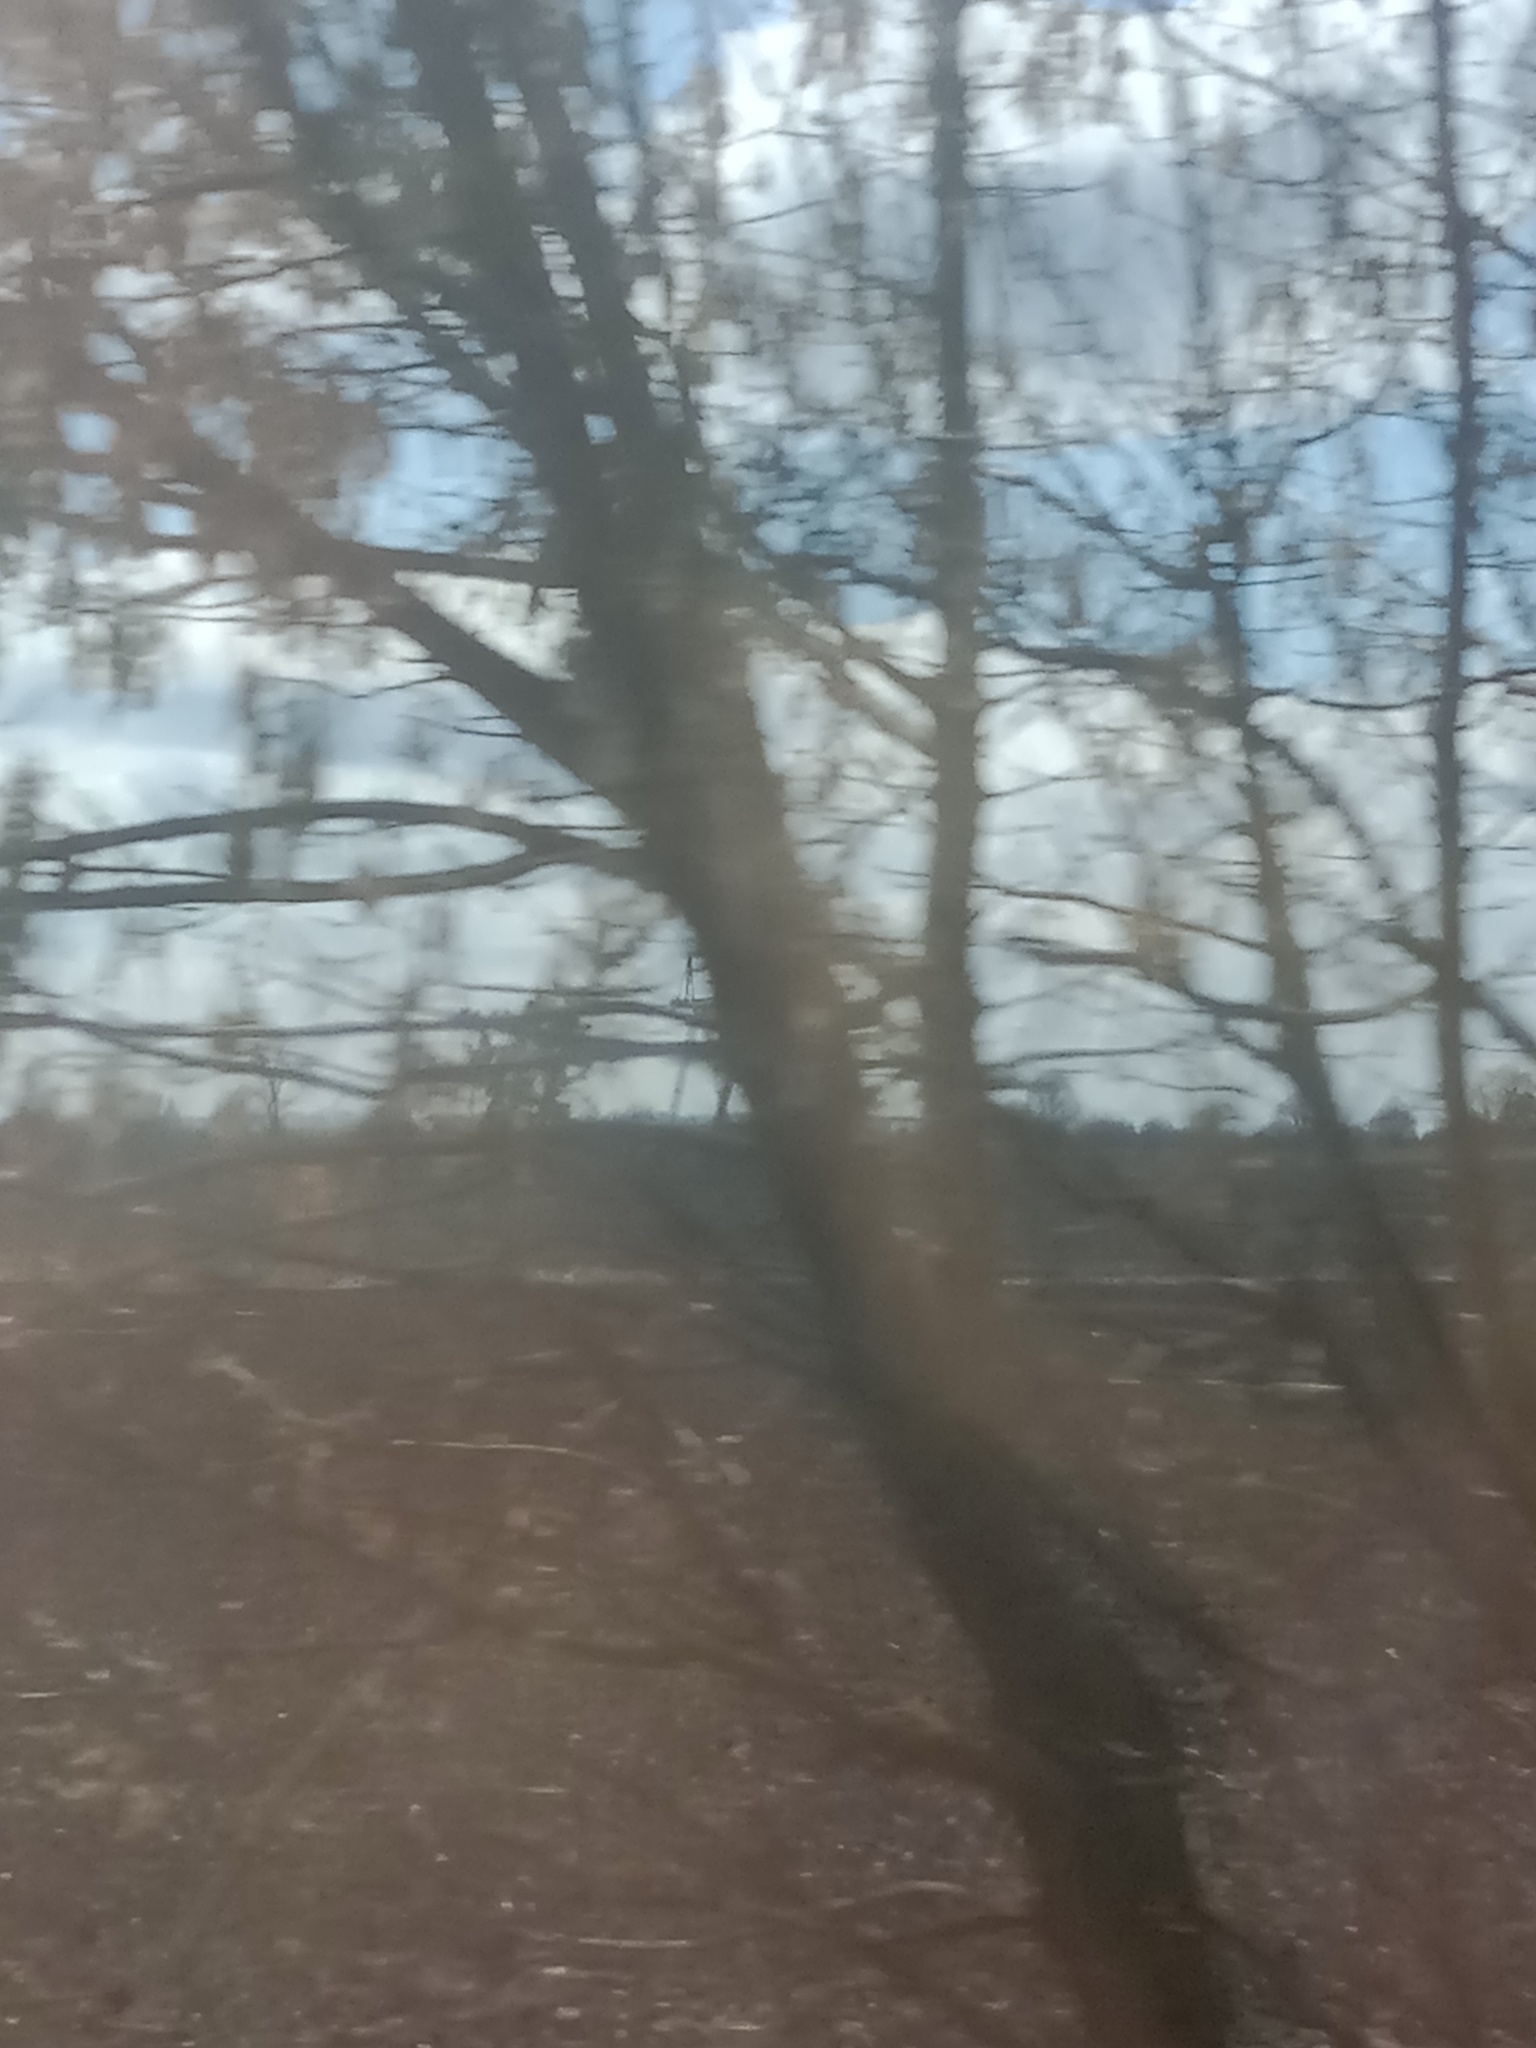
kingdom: Plantae
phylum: Tracheophyta
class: Magnoliopsida
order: Santalales
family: Viscaceae
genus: Viscum
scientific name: Viscum album
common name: Mistletoe
